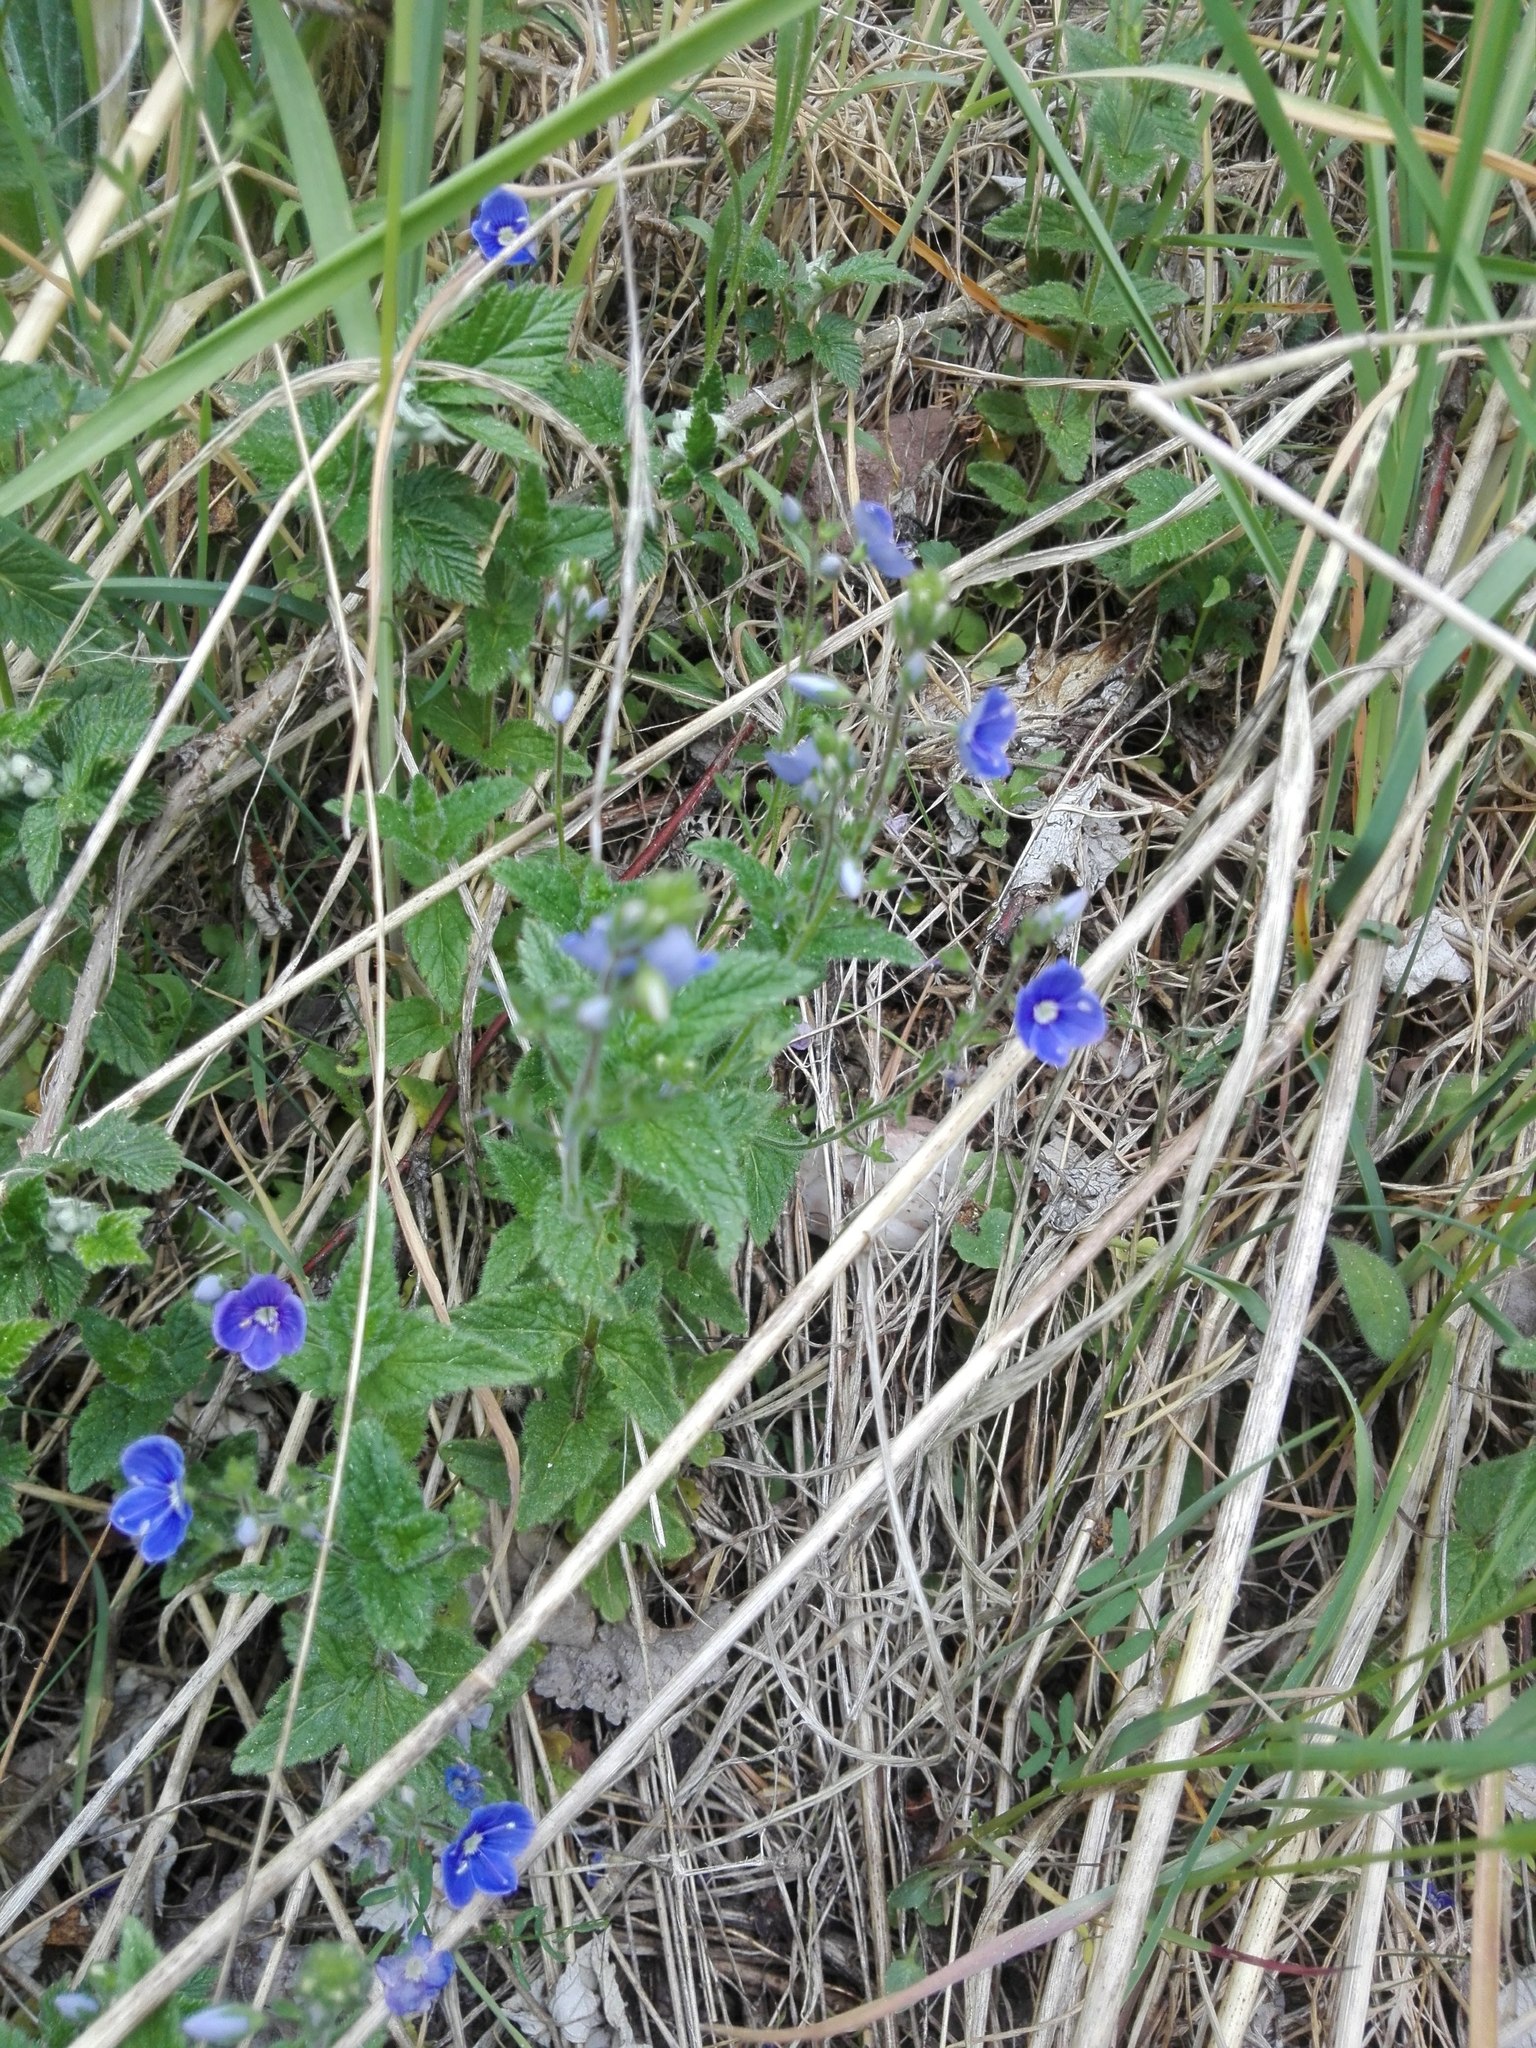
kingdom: Plantae
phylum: Tracheophyta
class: Magnoliopsida
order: Lamiales
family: Plantaginaceae
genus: Veronica
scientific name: Veronica chamaedrys
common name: Germander speedwell
